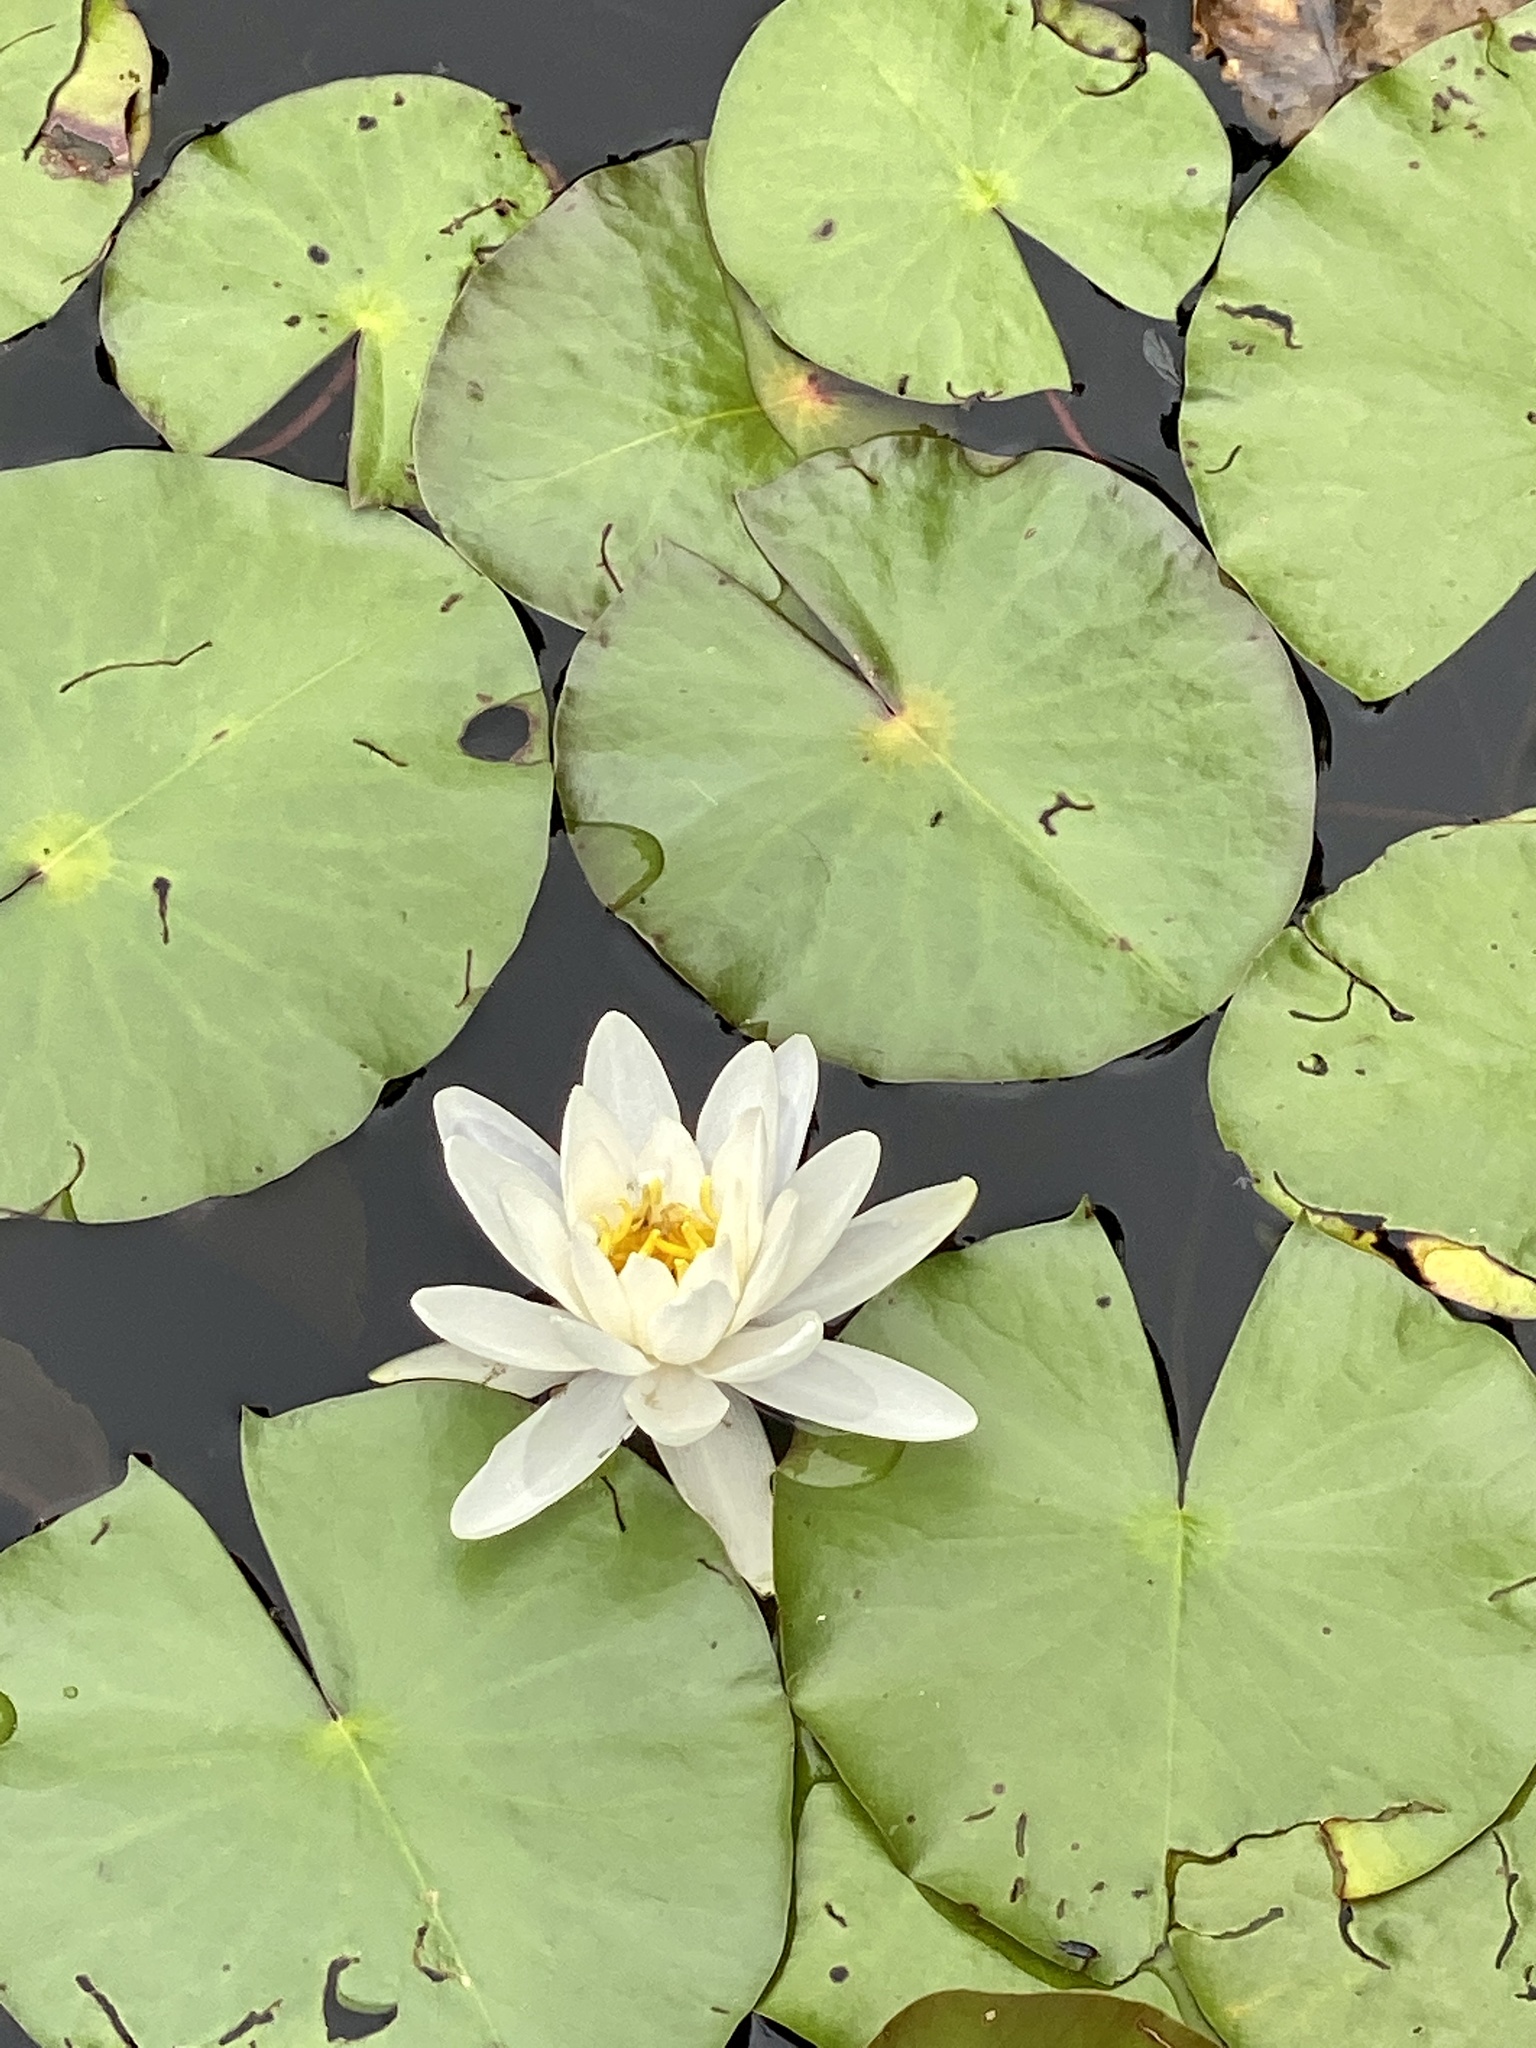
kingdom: Plantae
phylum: Tracheophyta
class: Magnoliopsida
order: Nymphaeales
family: Nymphaeaceae
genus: Nymphaea
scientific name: Nymphaea odorata
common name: Fragrant water-lily
